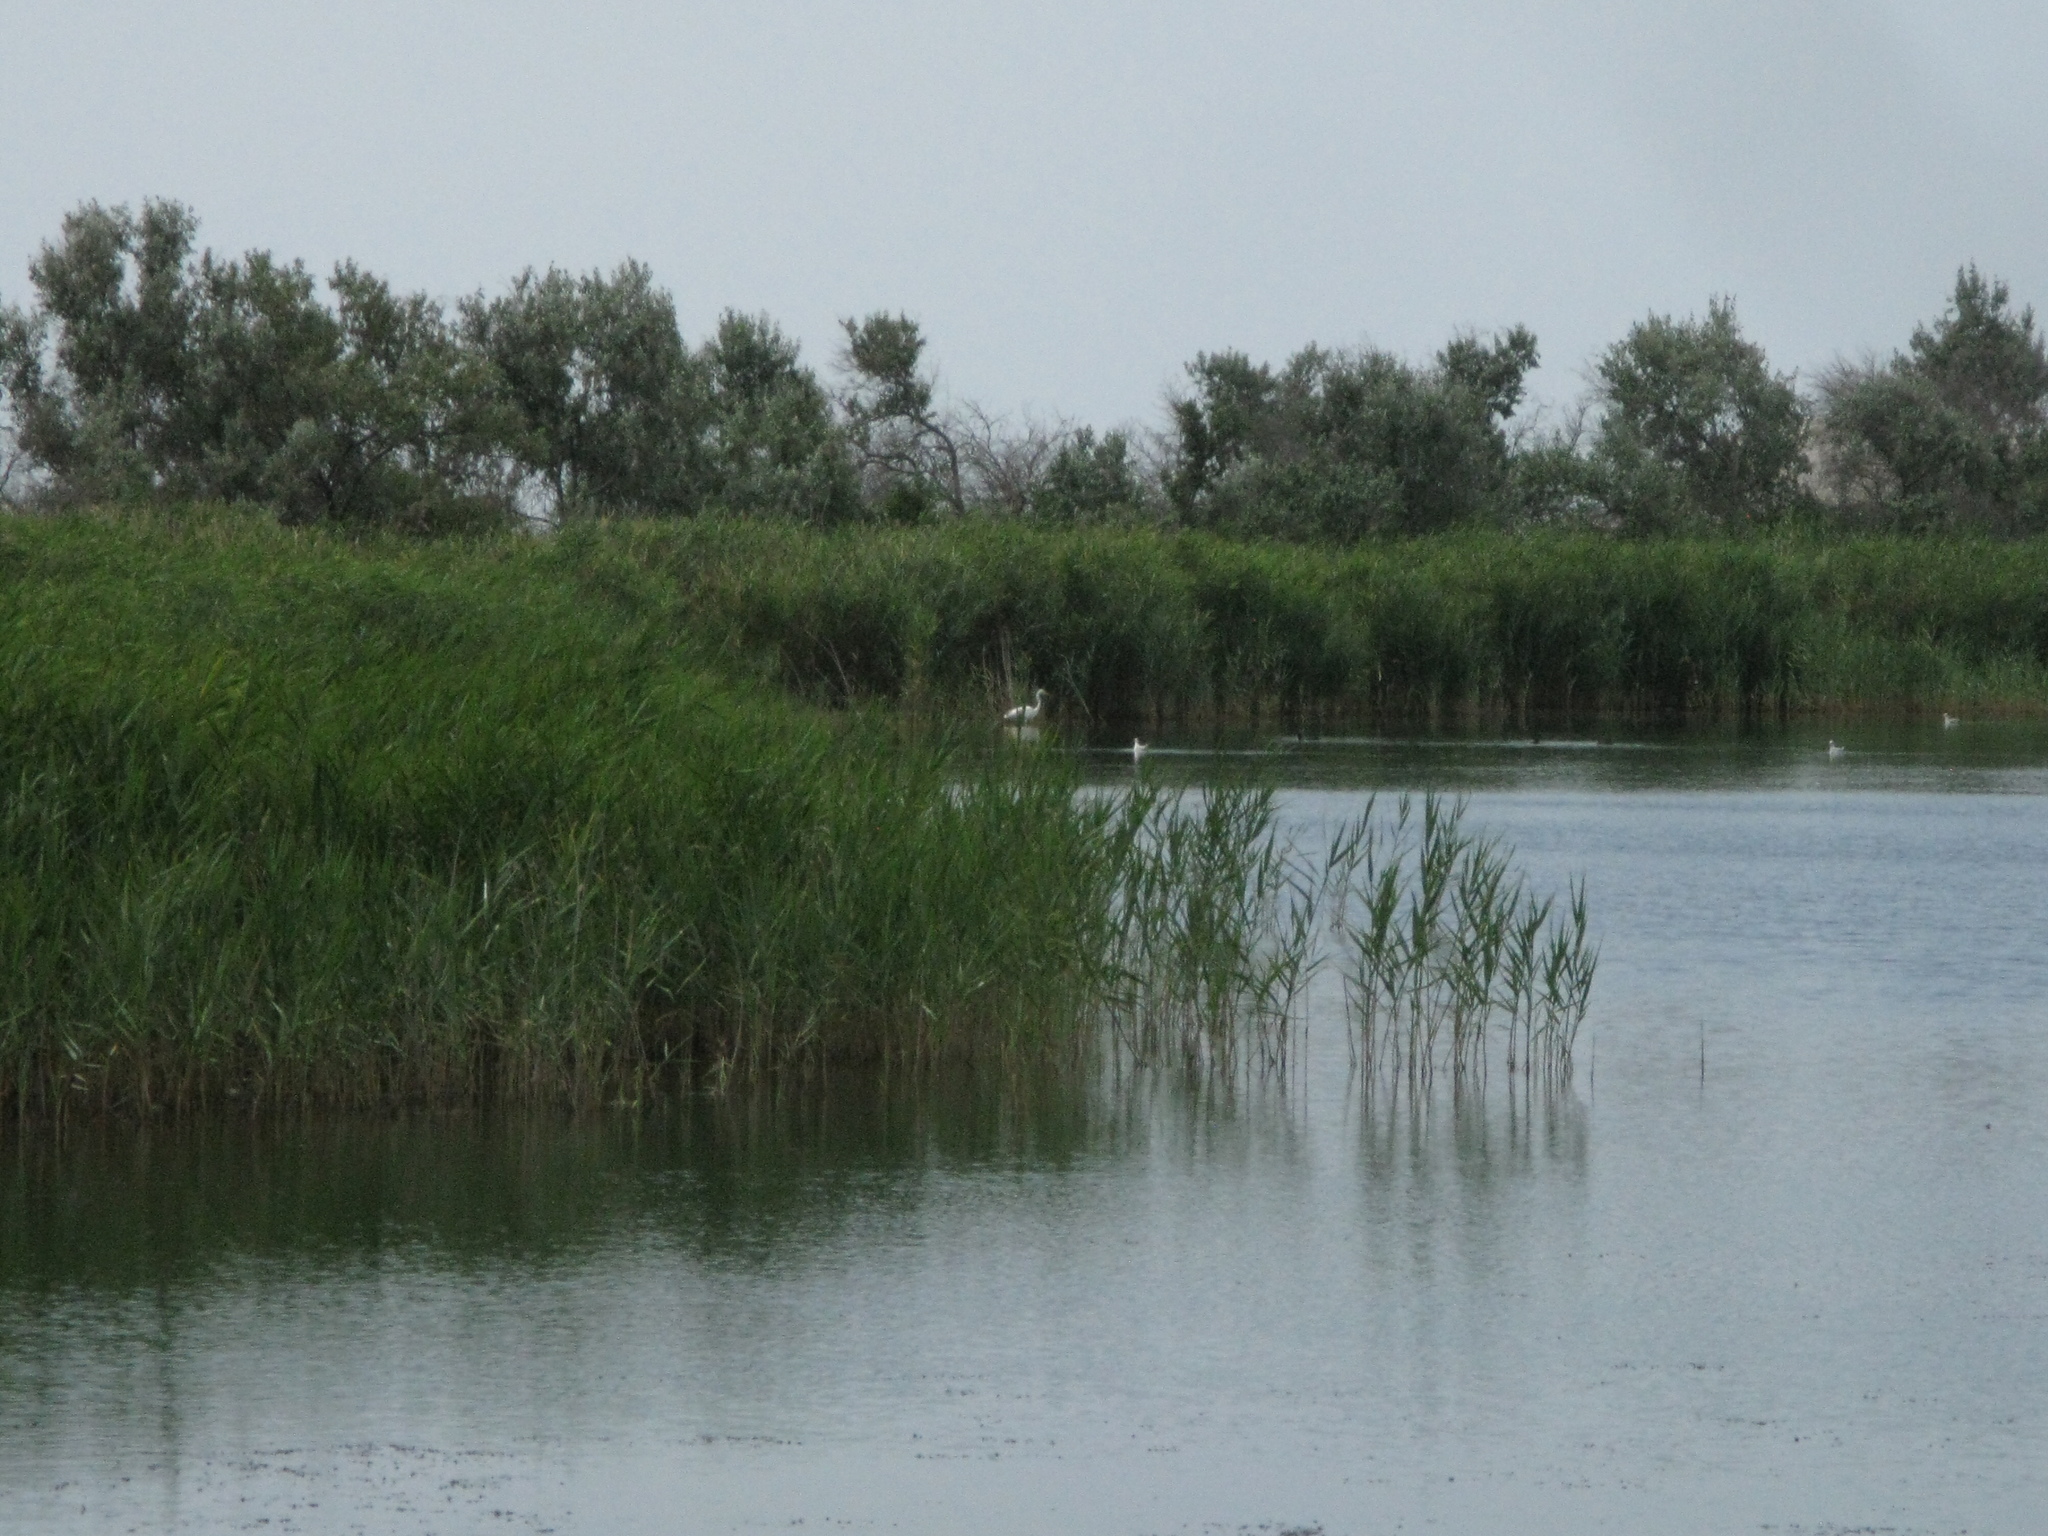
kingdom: Animalia
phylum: Chordata
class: Aves
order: Pelecaniformes
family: Ardeidae
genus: Ardea
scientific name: Ardea alba
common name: Great egret
